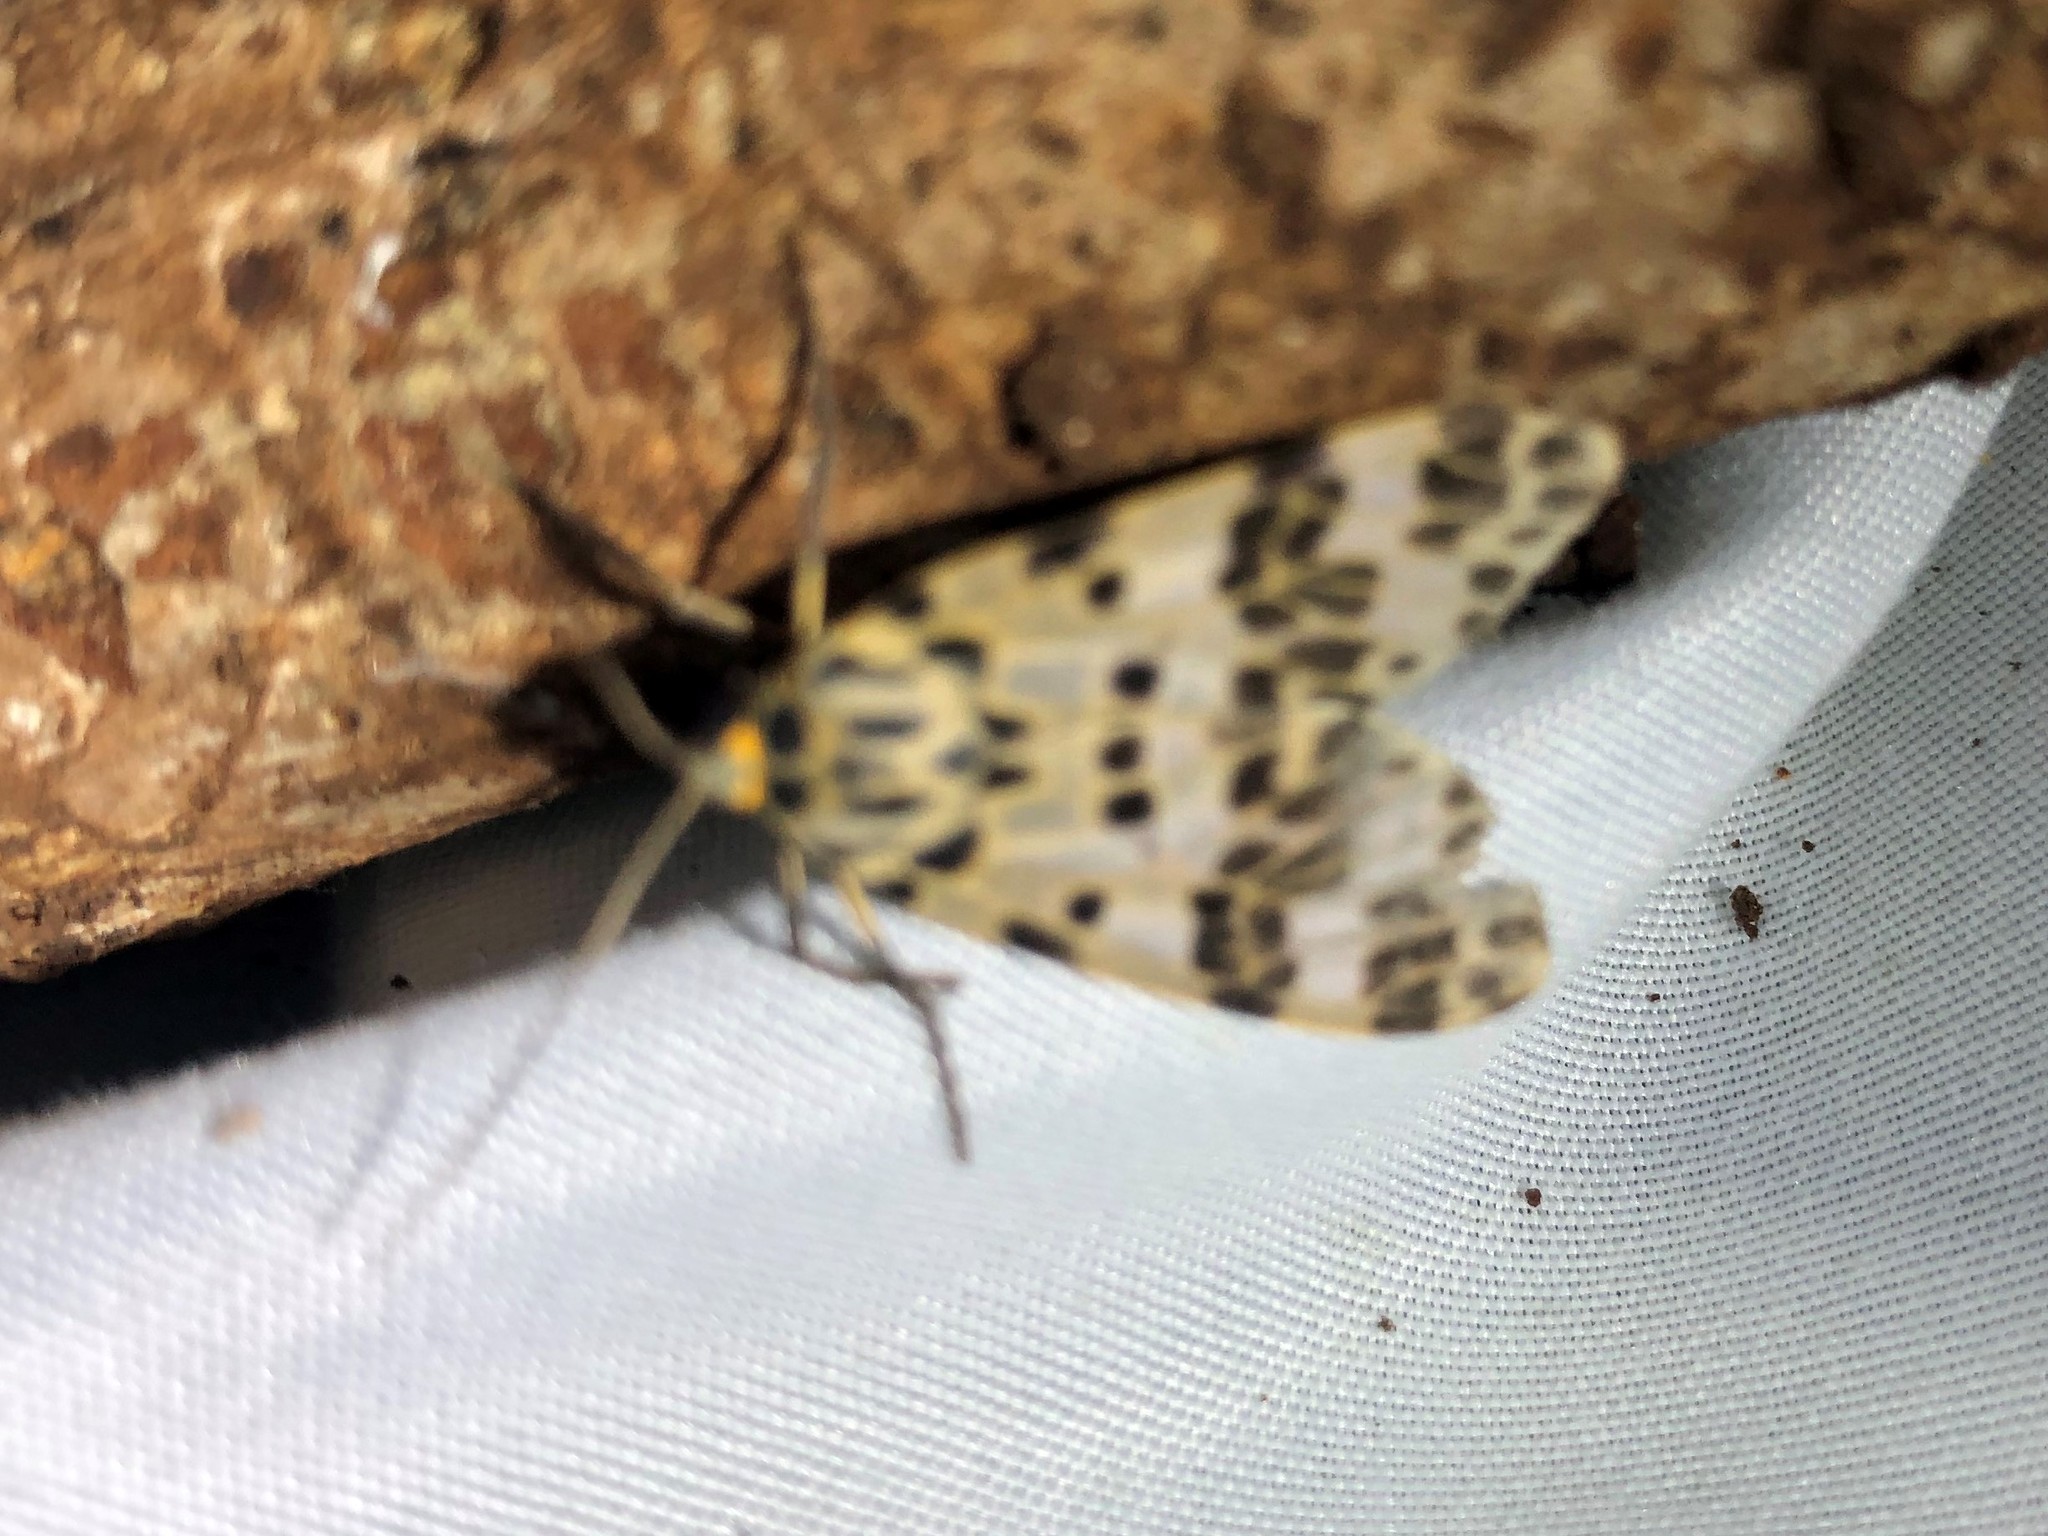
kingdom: Animalia
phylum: Arthropoda
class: Insecta
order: Lepidoptera
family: Erebidae
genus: Eucereon
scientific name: Eucereon aoris
